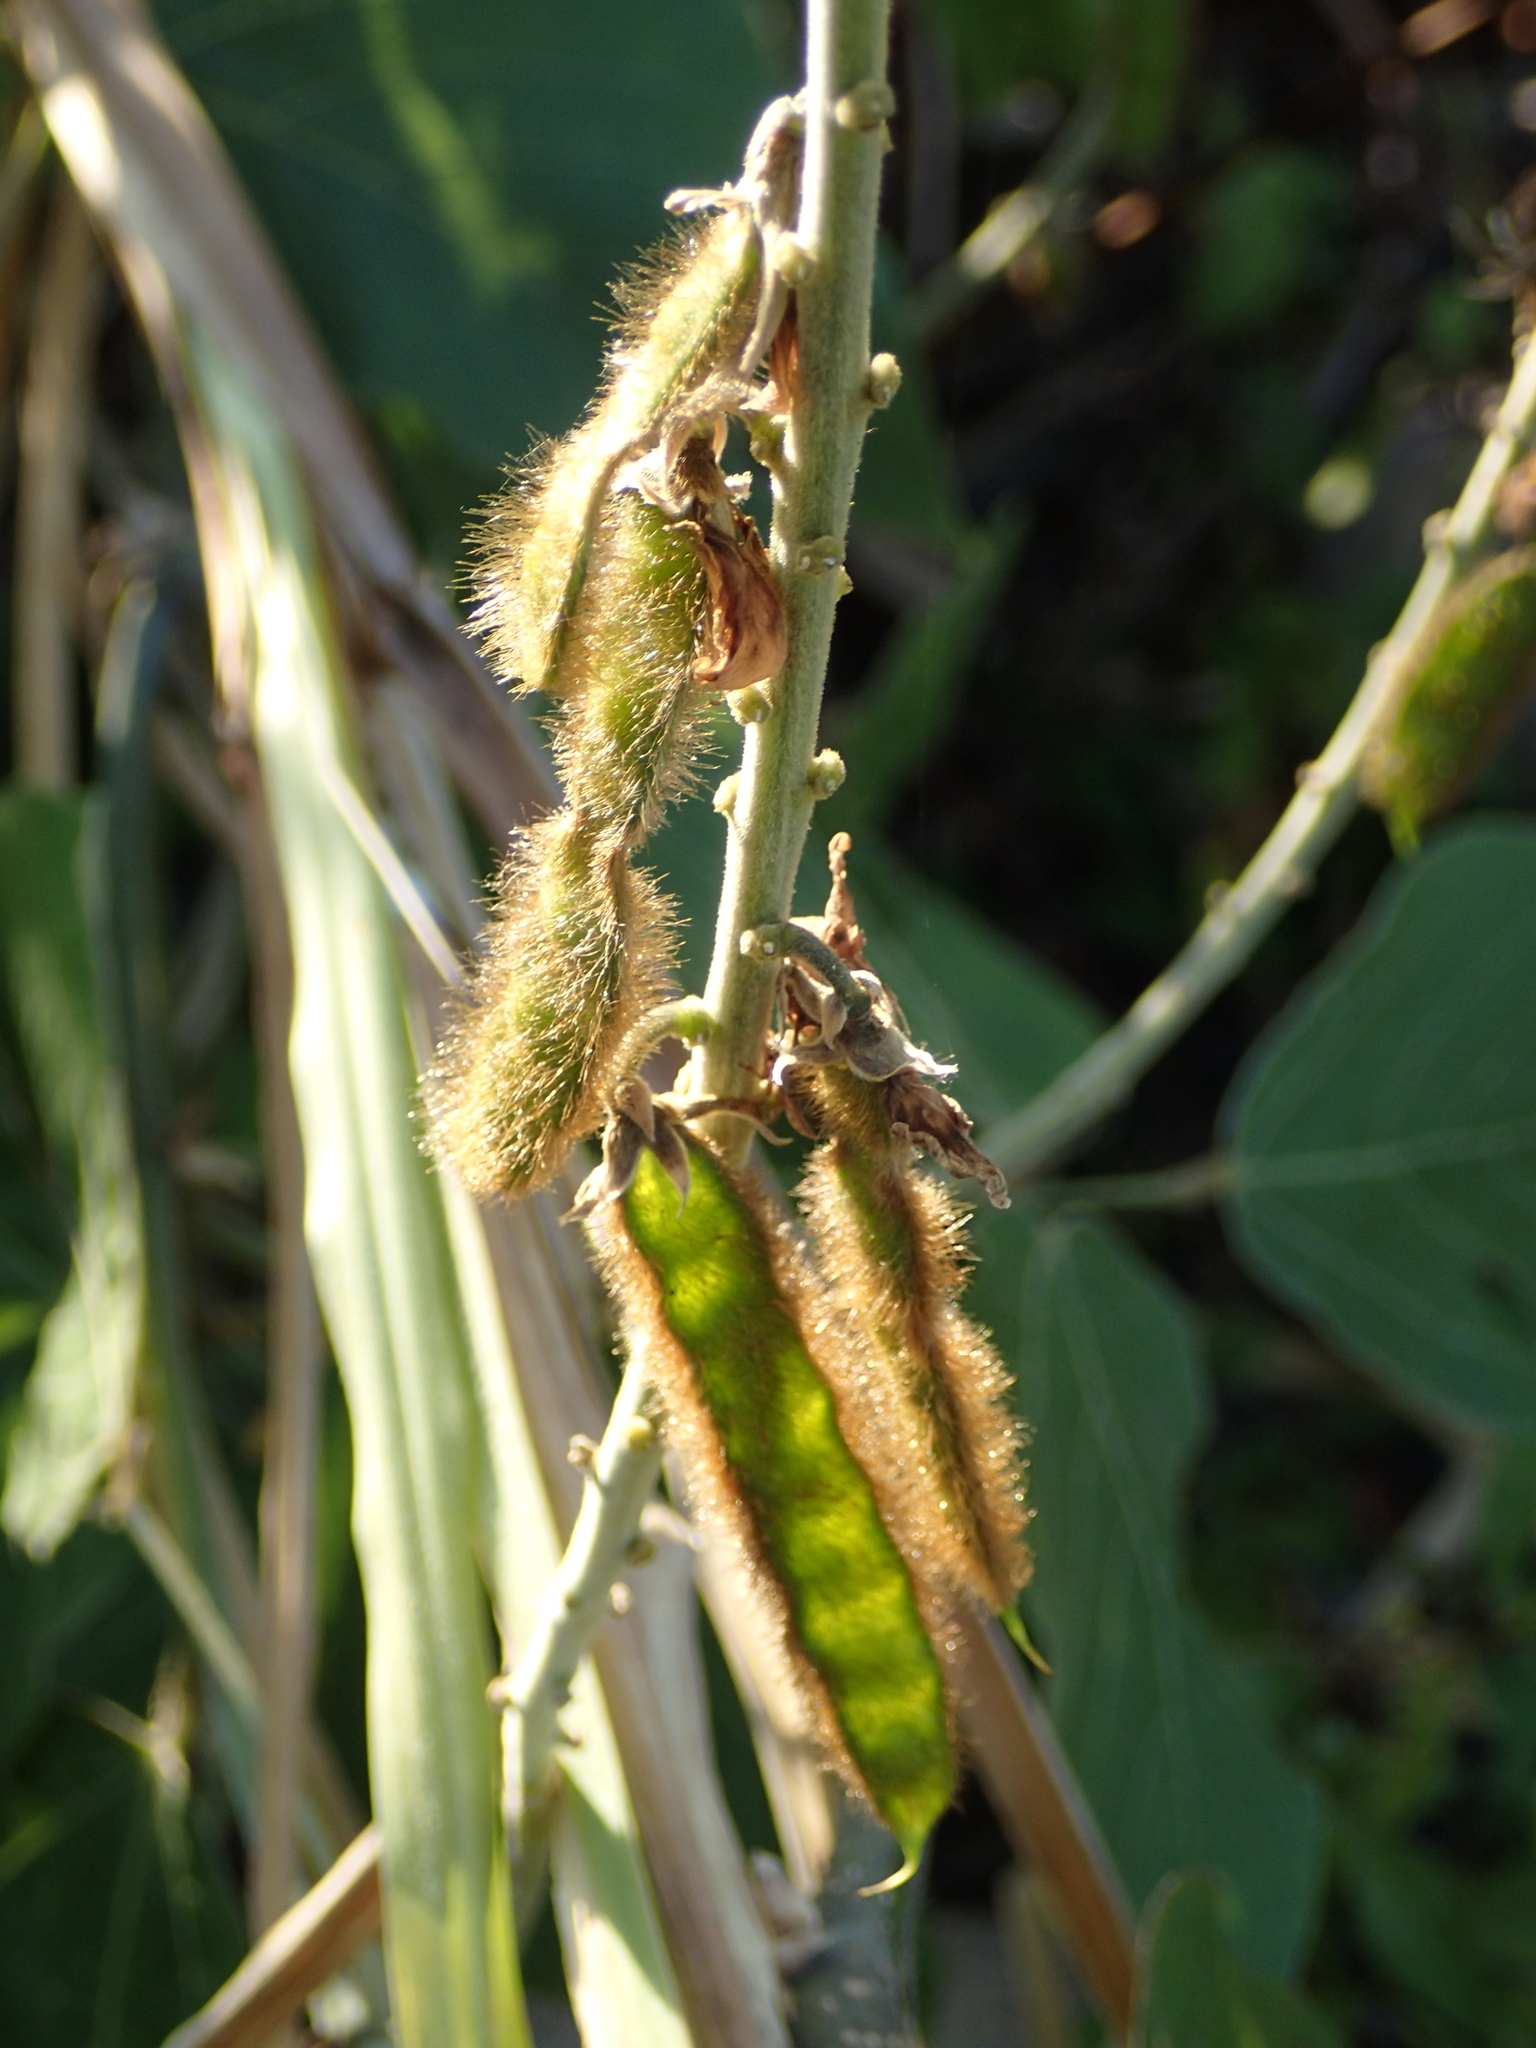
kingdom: Plantae
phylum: Tracheophyta
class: Magnoliopsida
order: Fabales
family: Fabaceae
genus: Pueraria
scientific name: Pueraria montana
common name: Kudzu
